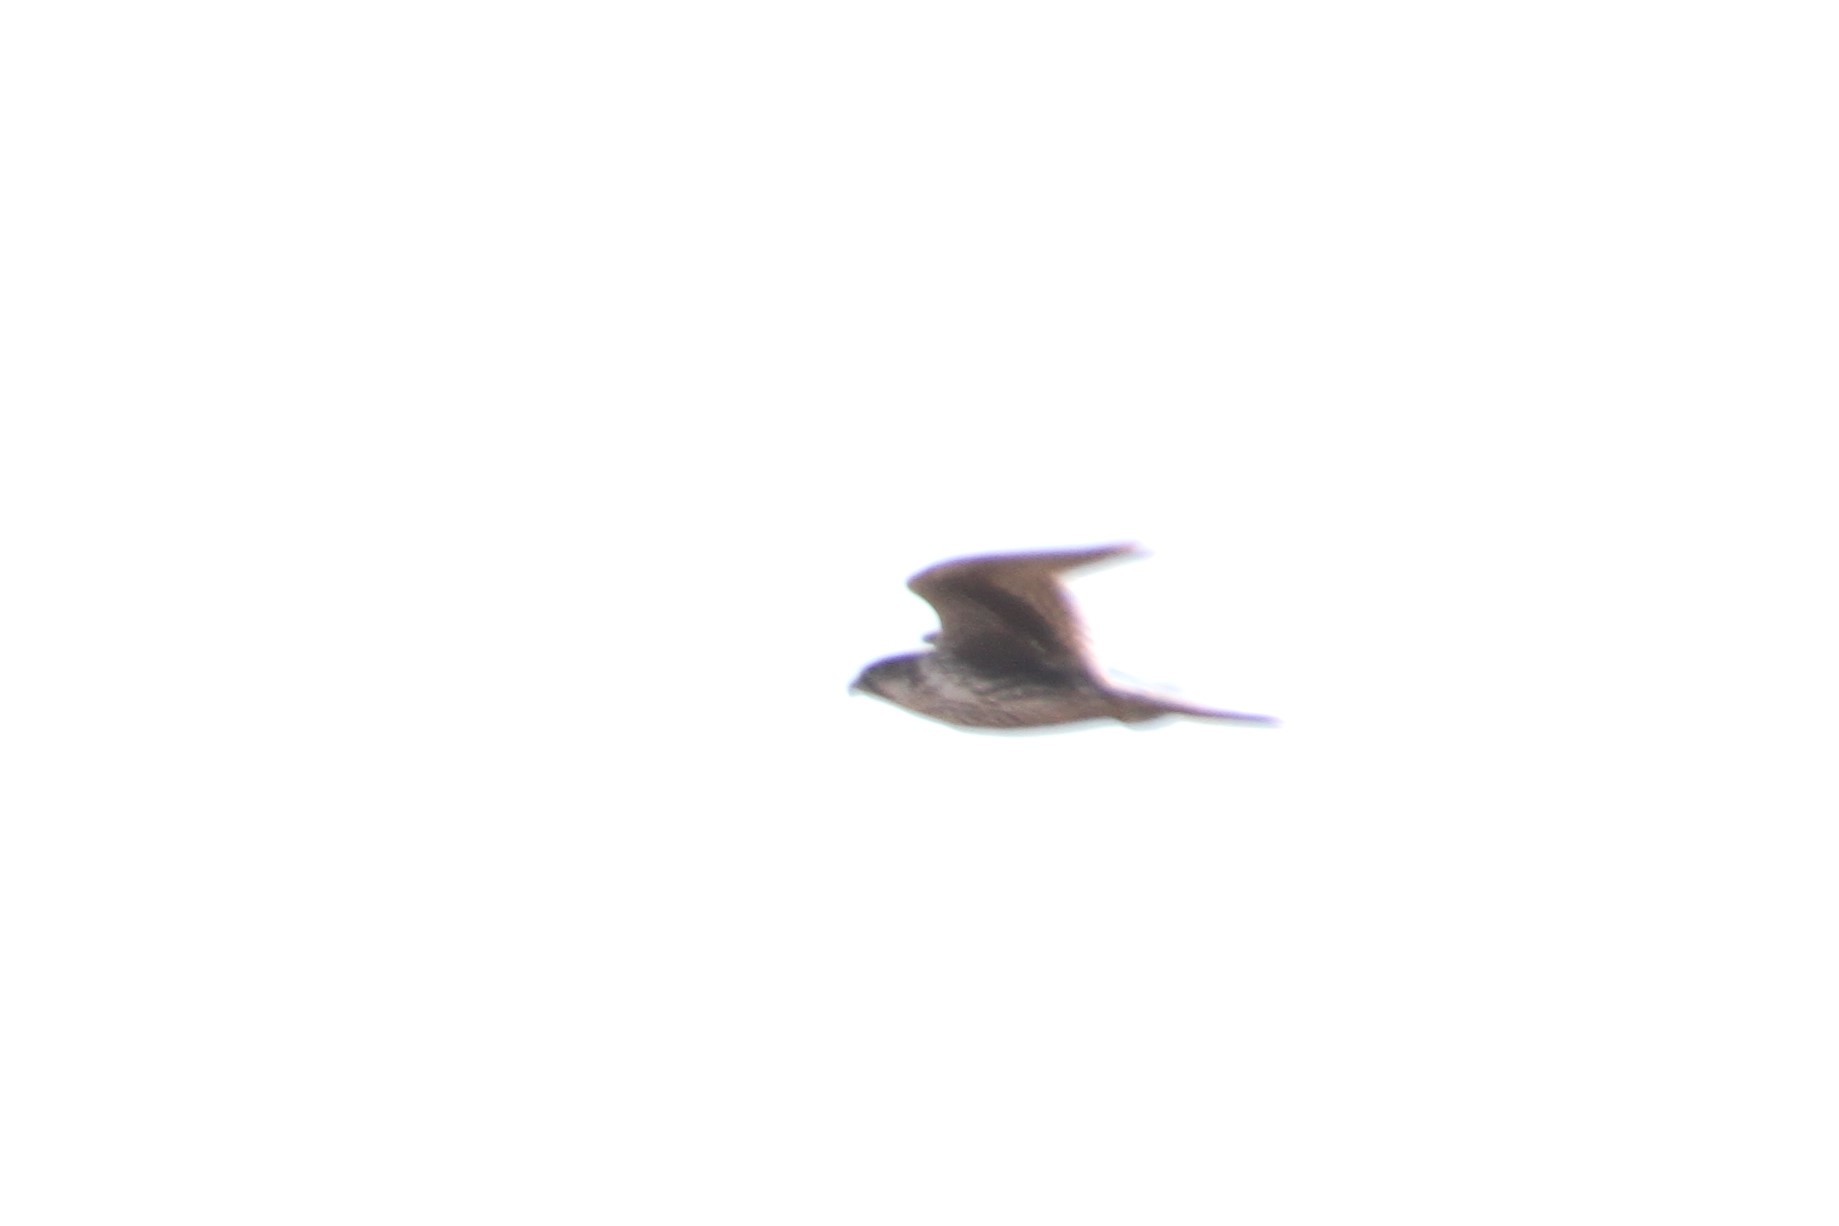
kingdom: Animalia
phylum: Chordata
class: Aves
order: Falconiformes
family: Falconidae
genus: Falco
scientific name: Falco mexicanus
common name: Prairie falcon
